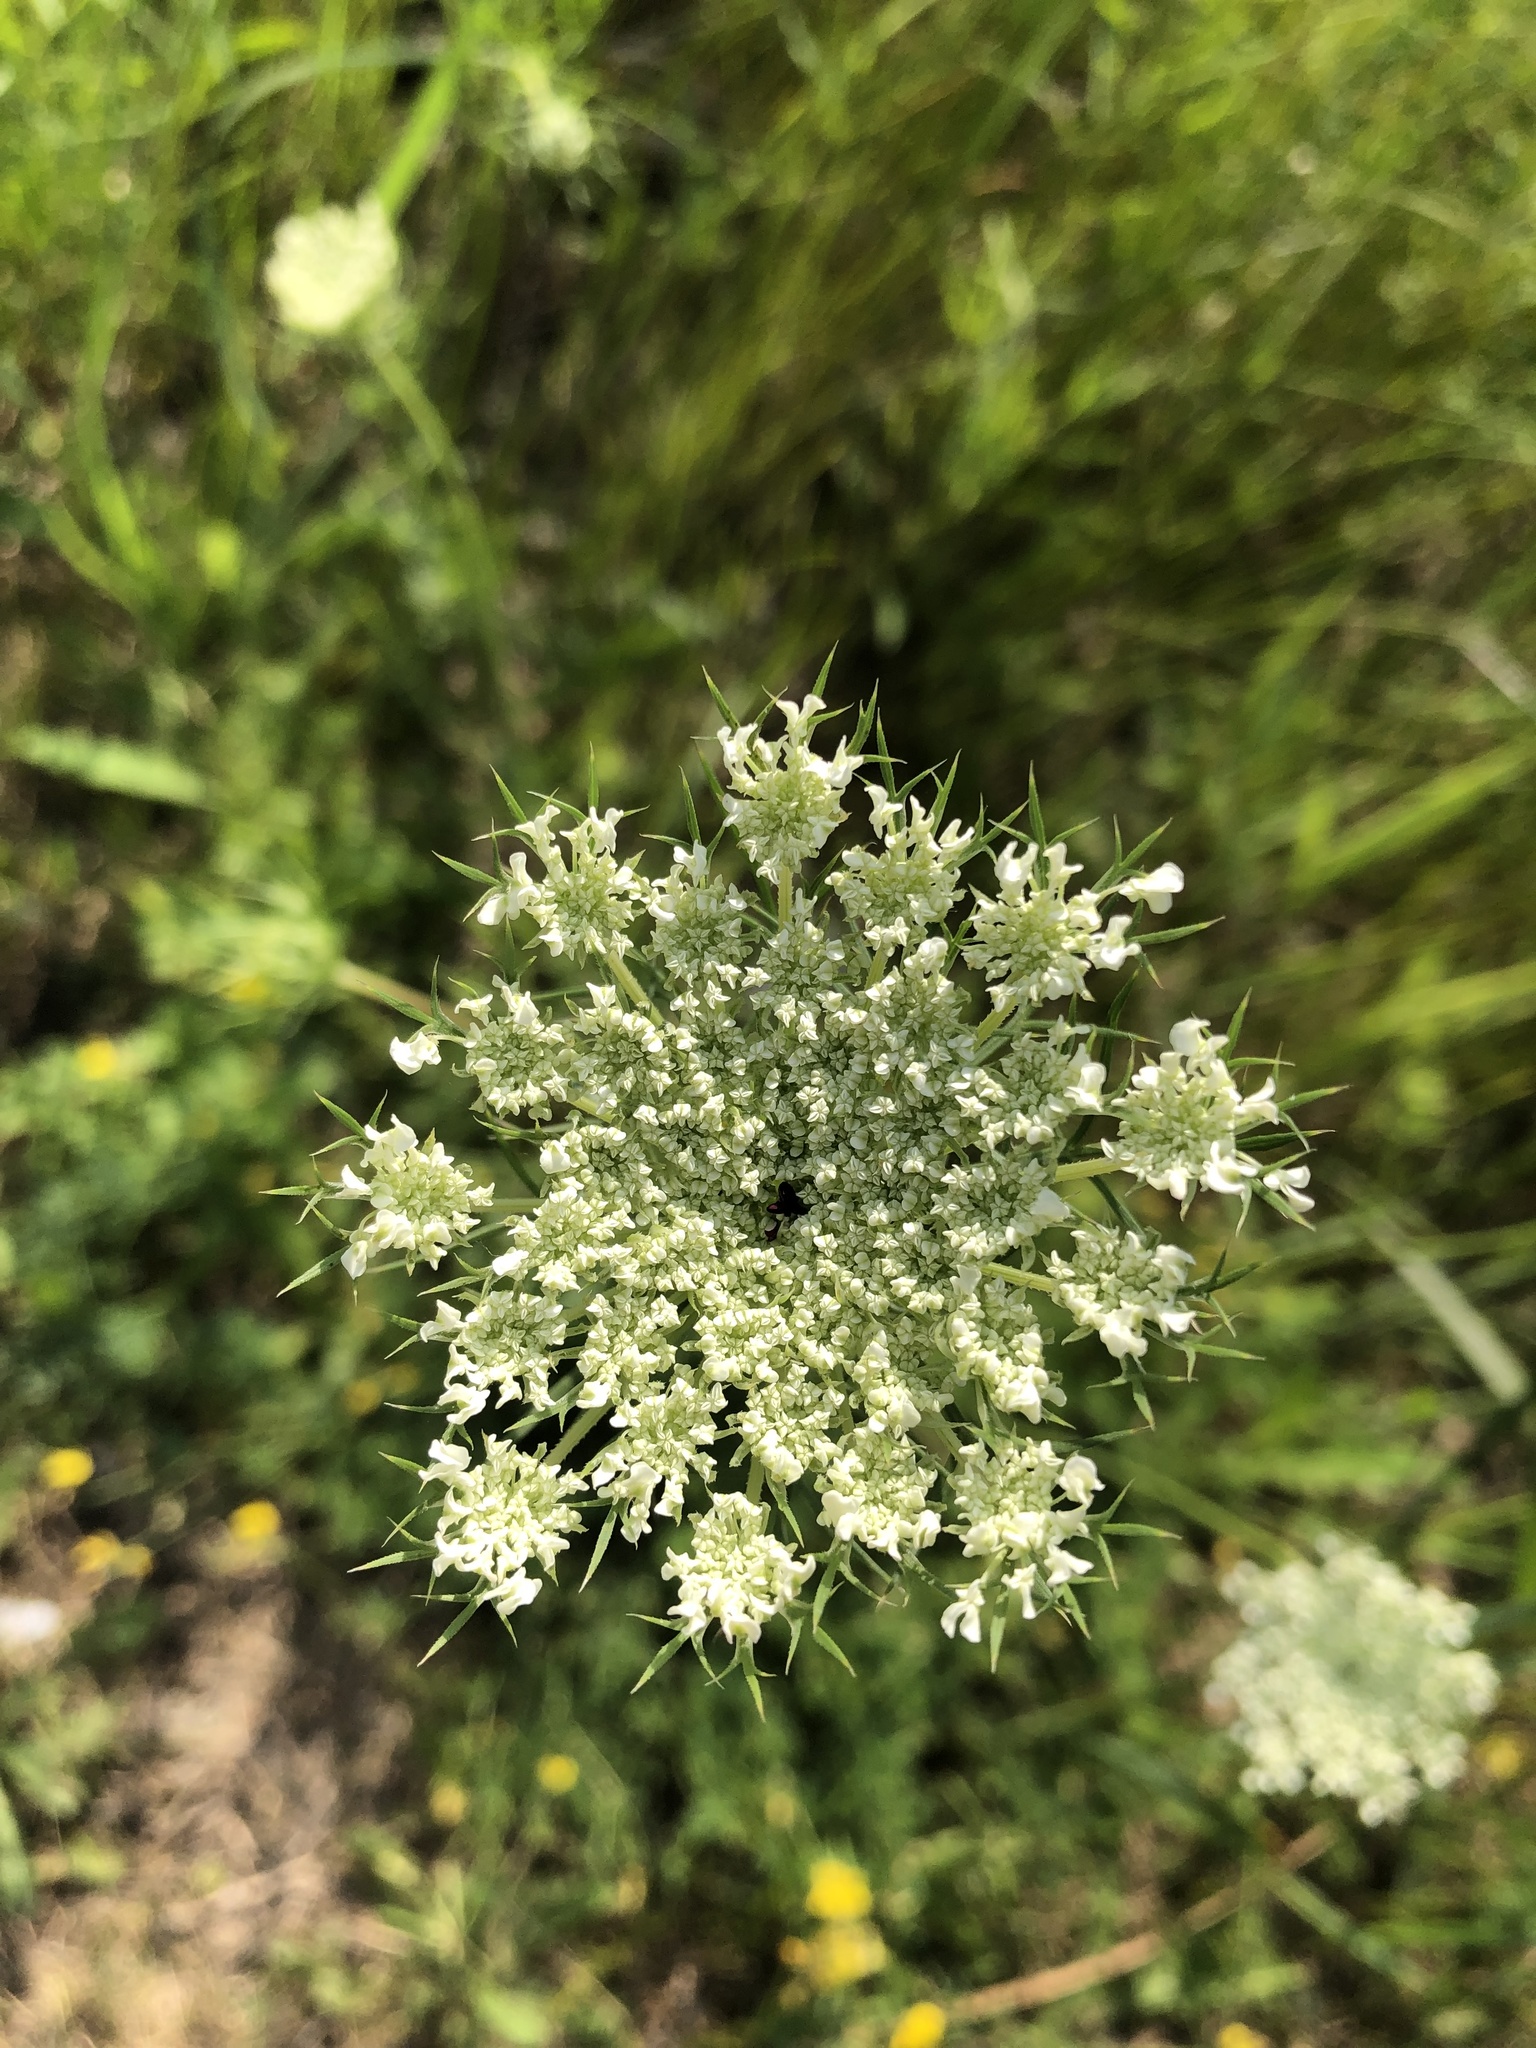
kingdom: Plantae
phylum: Tracheophyta
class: Magnoliopsida
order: Apiales
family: Apiaceae
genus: Daucus
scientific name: Daucus carota
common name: Wild carrot
